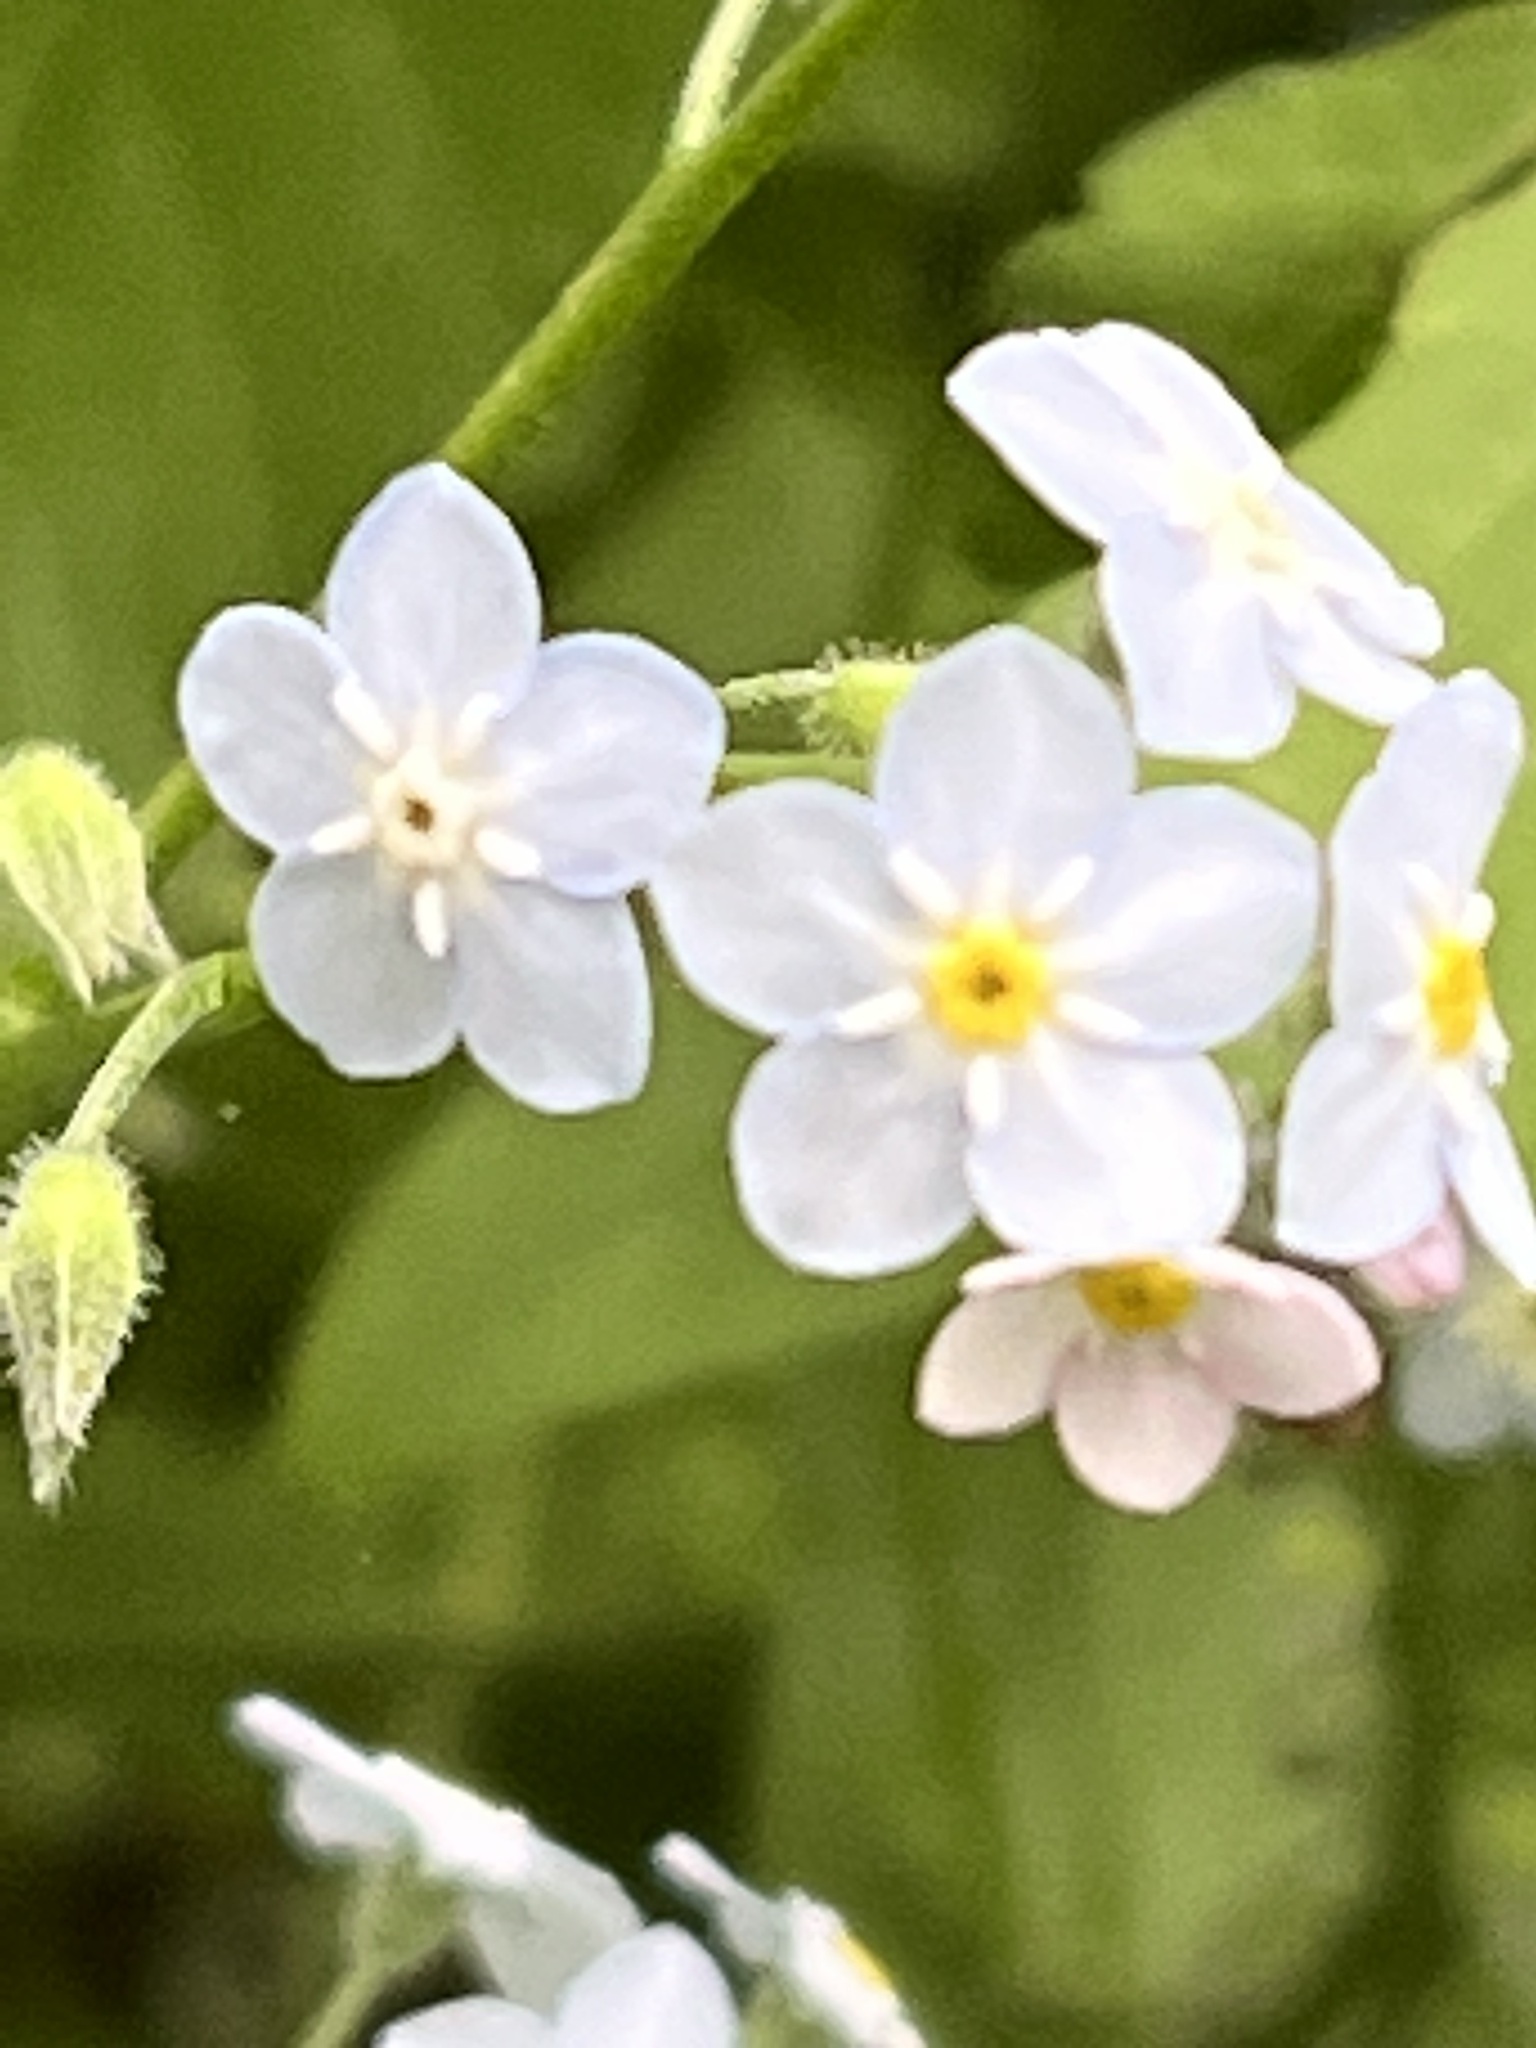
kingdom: Plantae
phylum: Tracheophyta
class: Magnoliopsida
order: Boraginales
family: Boraginaceae
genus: Myosotis
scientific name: Myosotis latifolia
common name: Broadleaf forget-me-not
